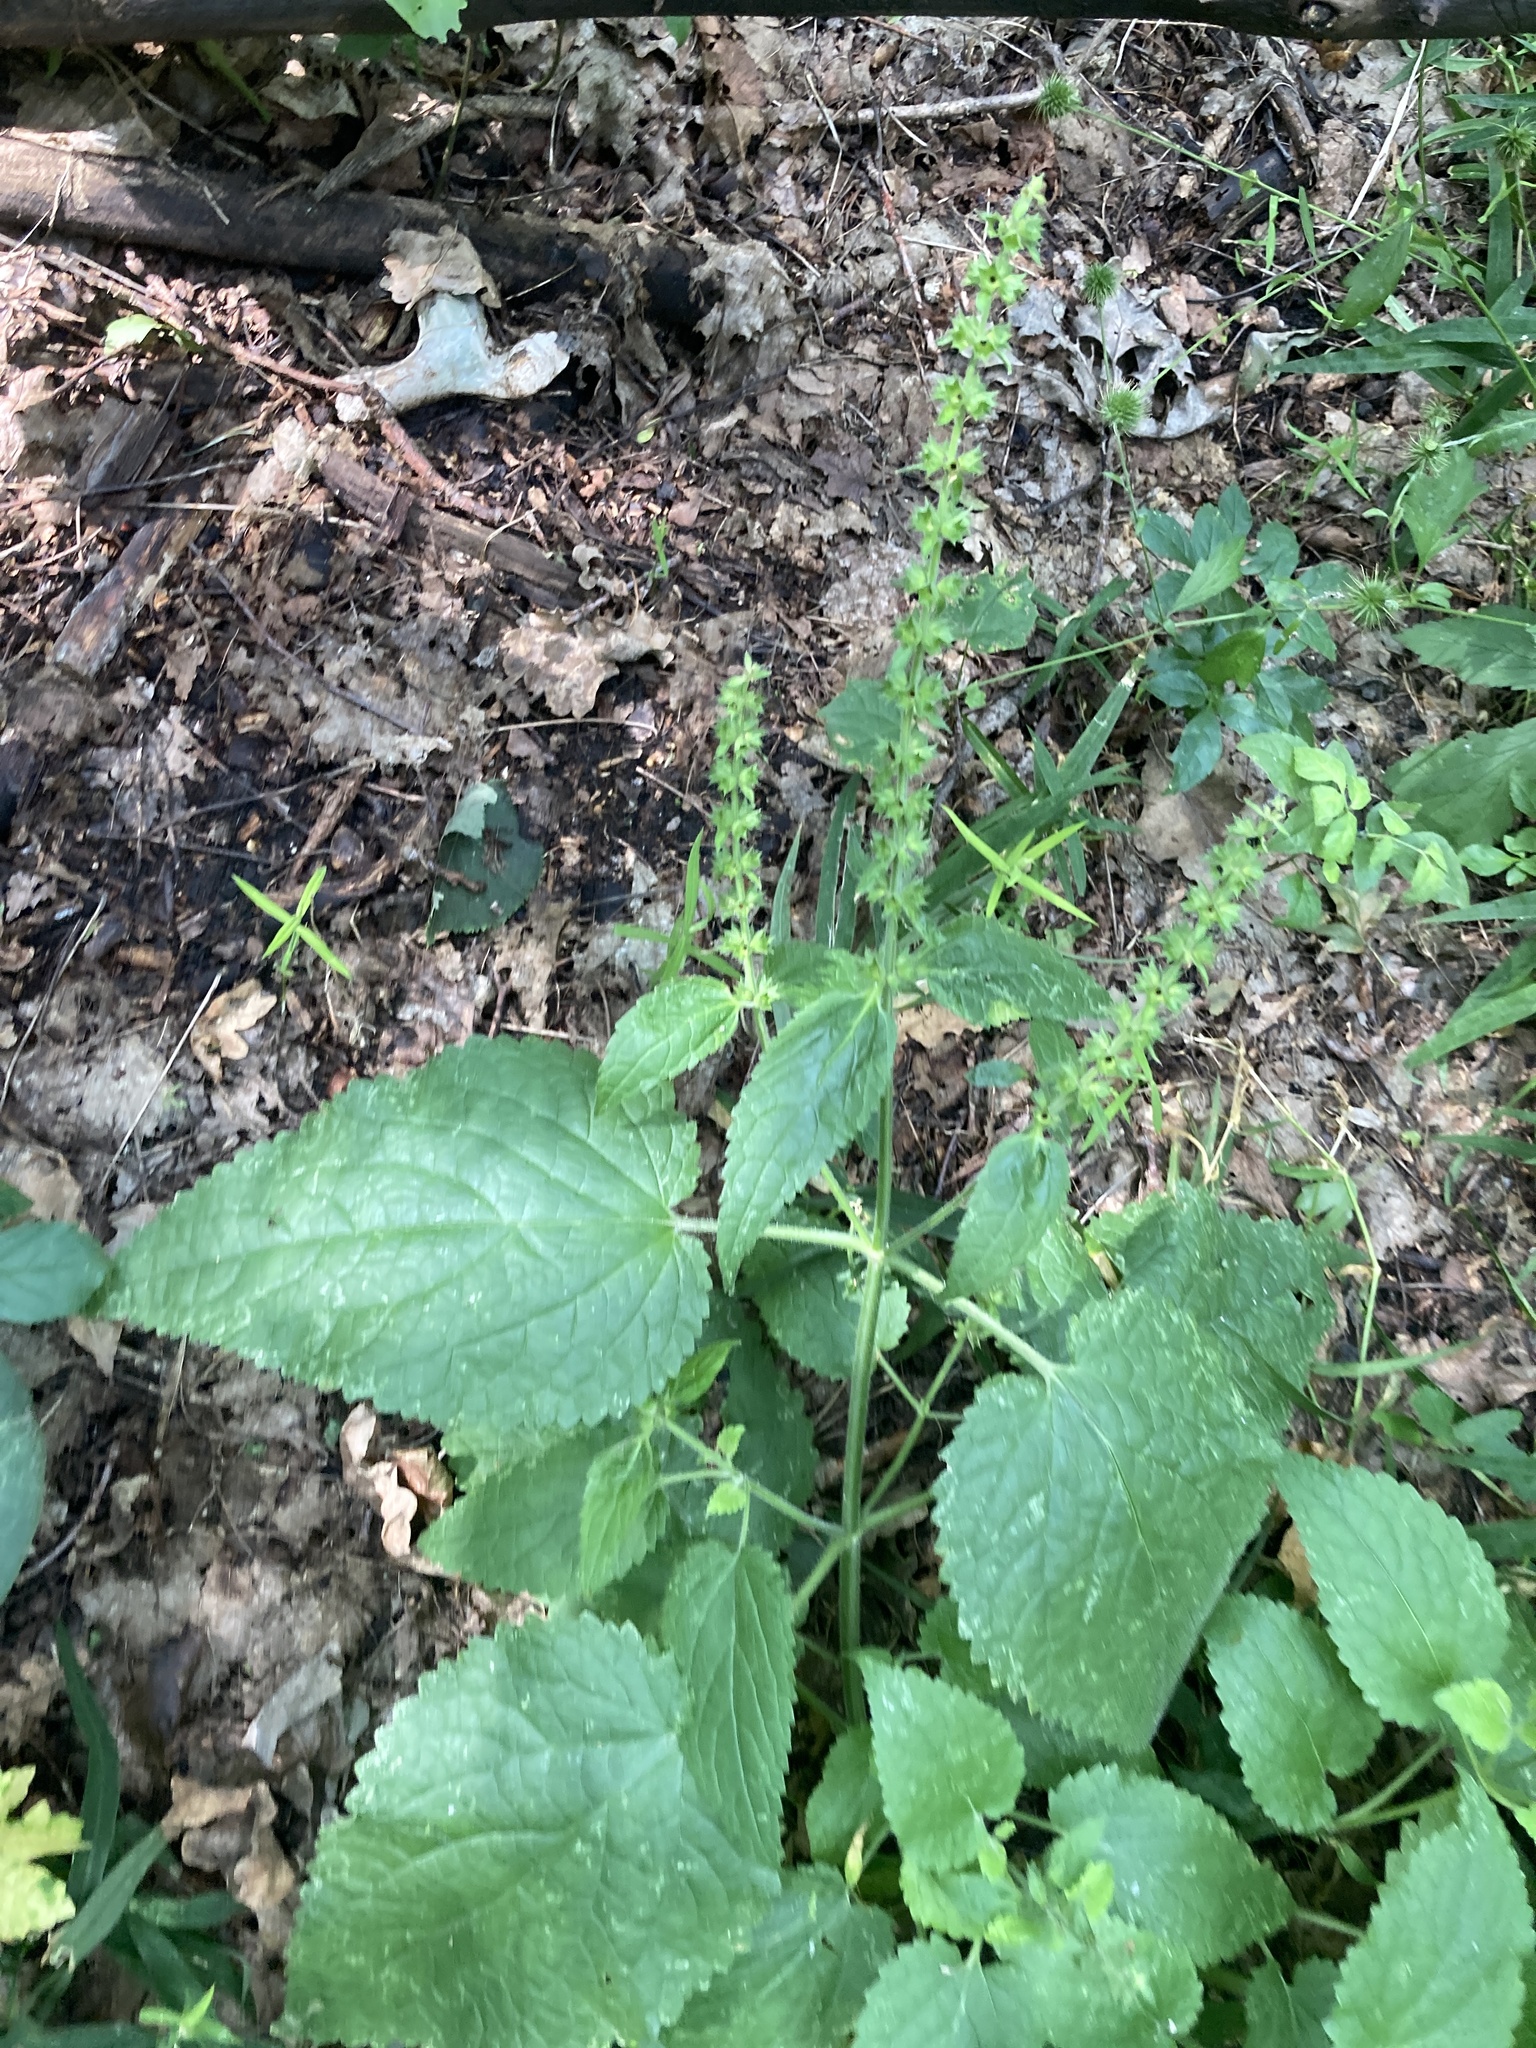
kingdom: Plantae
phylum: Tracheophyta
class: Magnoliopsida
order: Lamiales
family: Lamiaceae
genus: Stachys
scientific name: Stachys sylvatica
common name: Hedge woundwort
